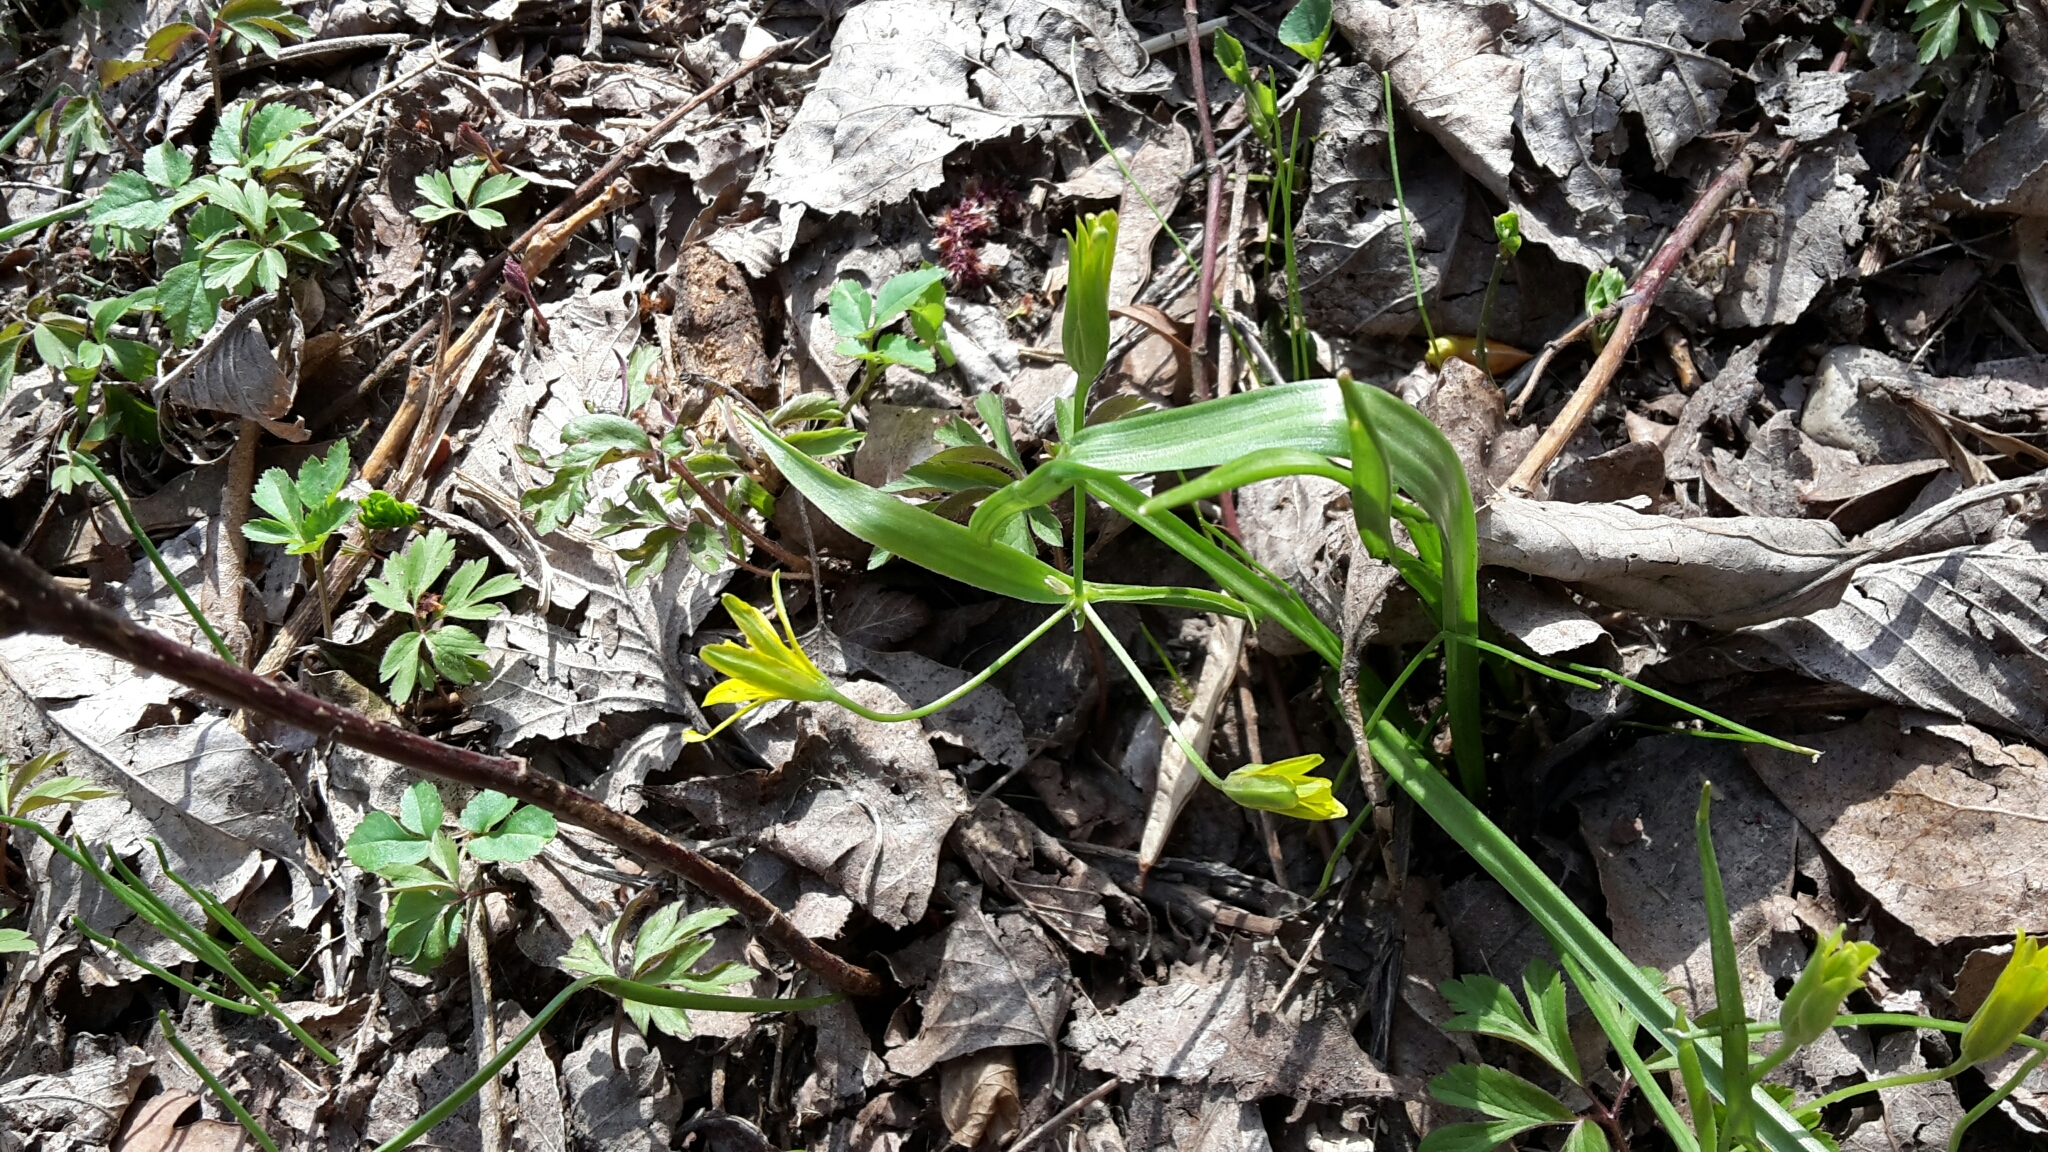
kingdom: Plantae
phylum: Tracheophyta
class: Liliopsida
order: Liliales
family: Liliaceae
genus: Gagea
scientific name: Gagea lutea
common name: Yellow star-of-bethlehem
